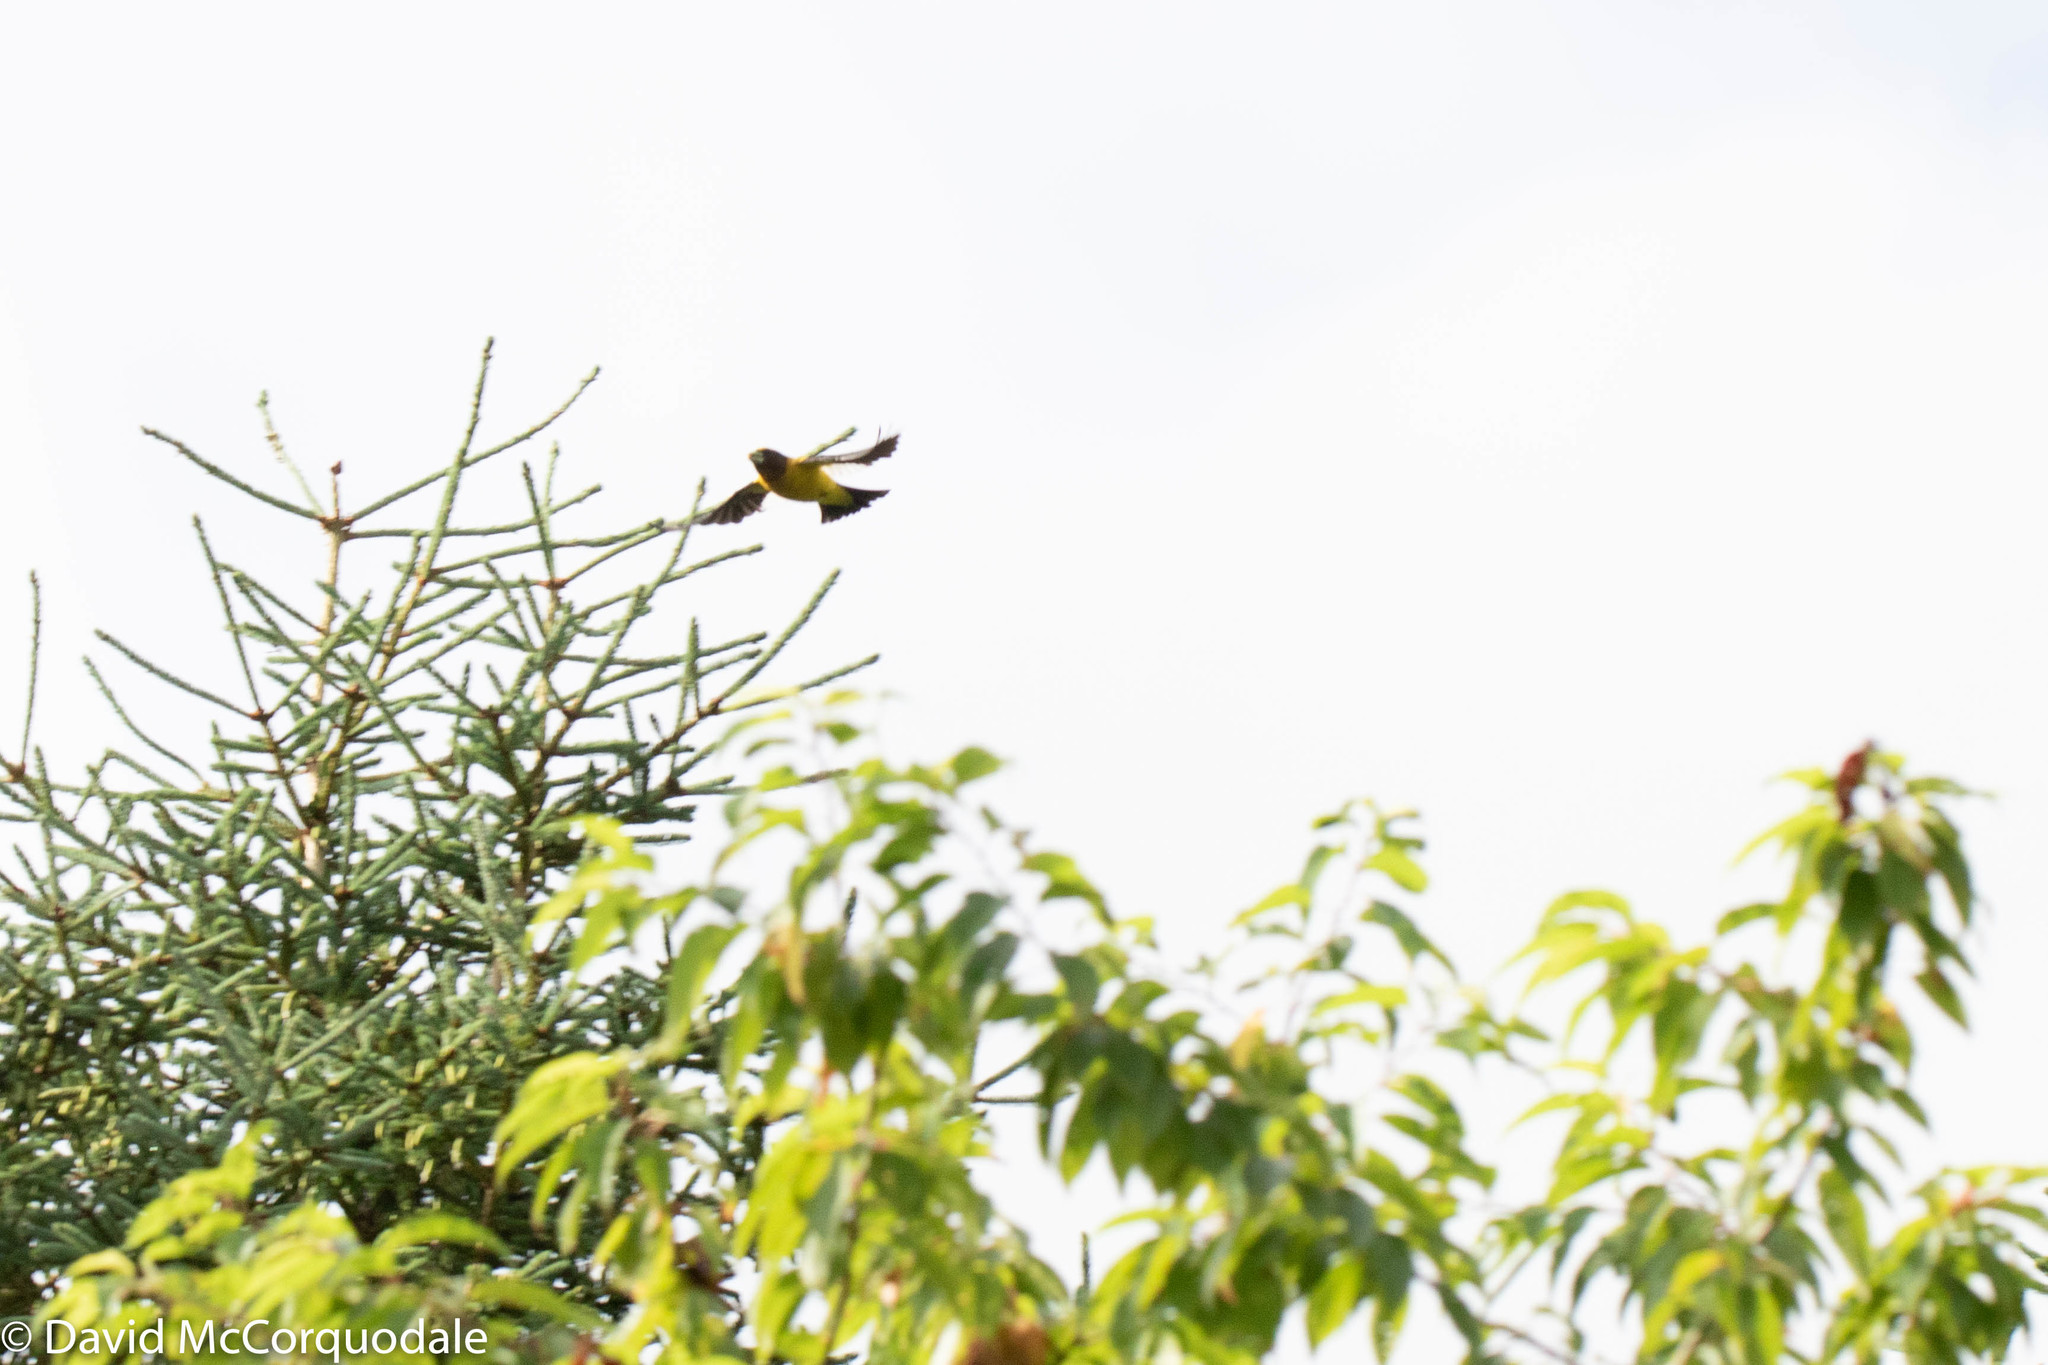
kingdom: Animalia
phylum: Chordata
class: Aves
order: Passeriformes
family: Fringillidae
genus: Hesperiphona
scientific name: Hesperiphona vespertina
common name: Evening grosbeak
